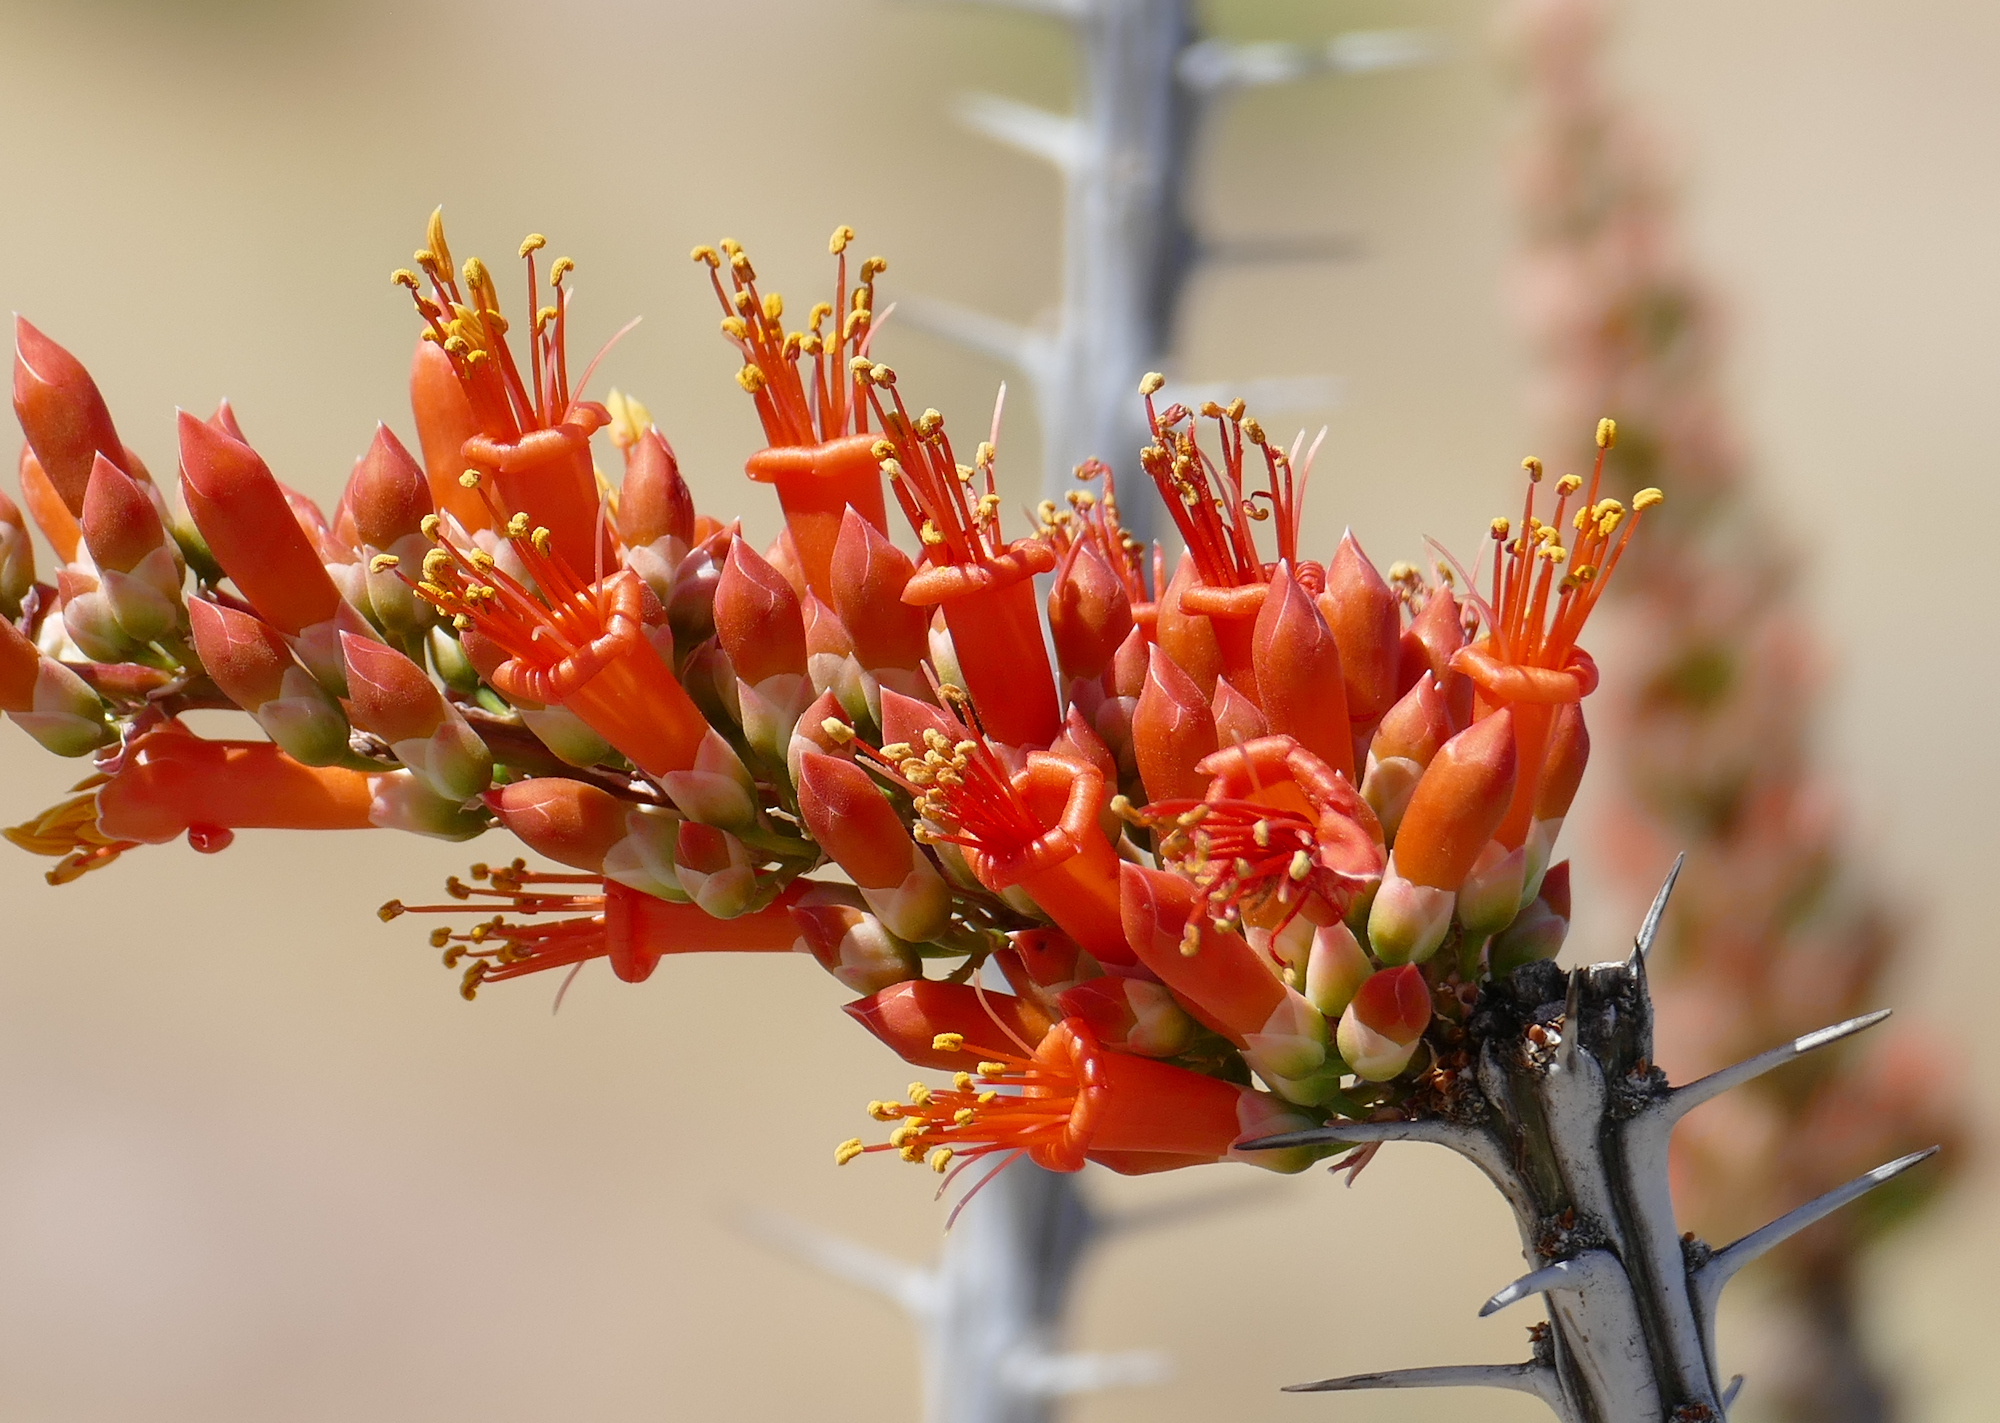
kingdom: Plantae
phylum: Tracheophyta
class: Magnoliopsida
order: Ericales
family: Fouquieriaceae
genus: Fouquieria
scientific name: Fouquieria splendens
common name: Vine-cactus
